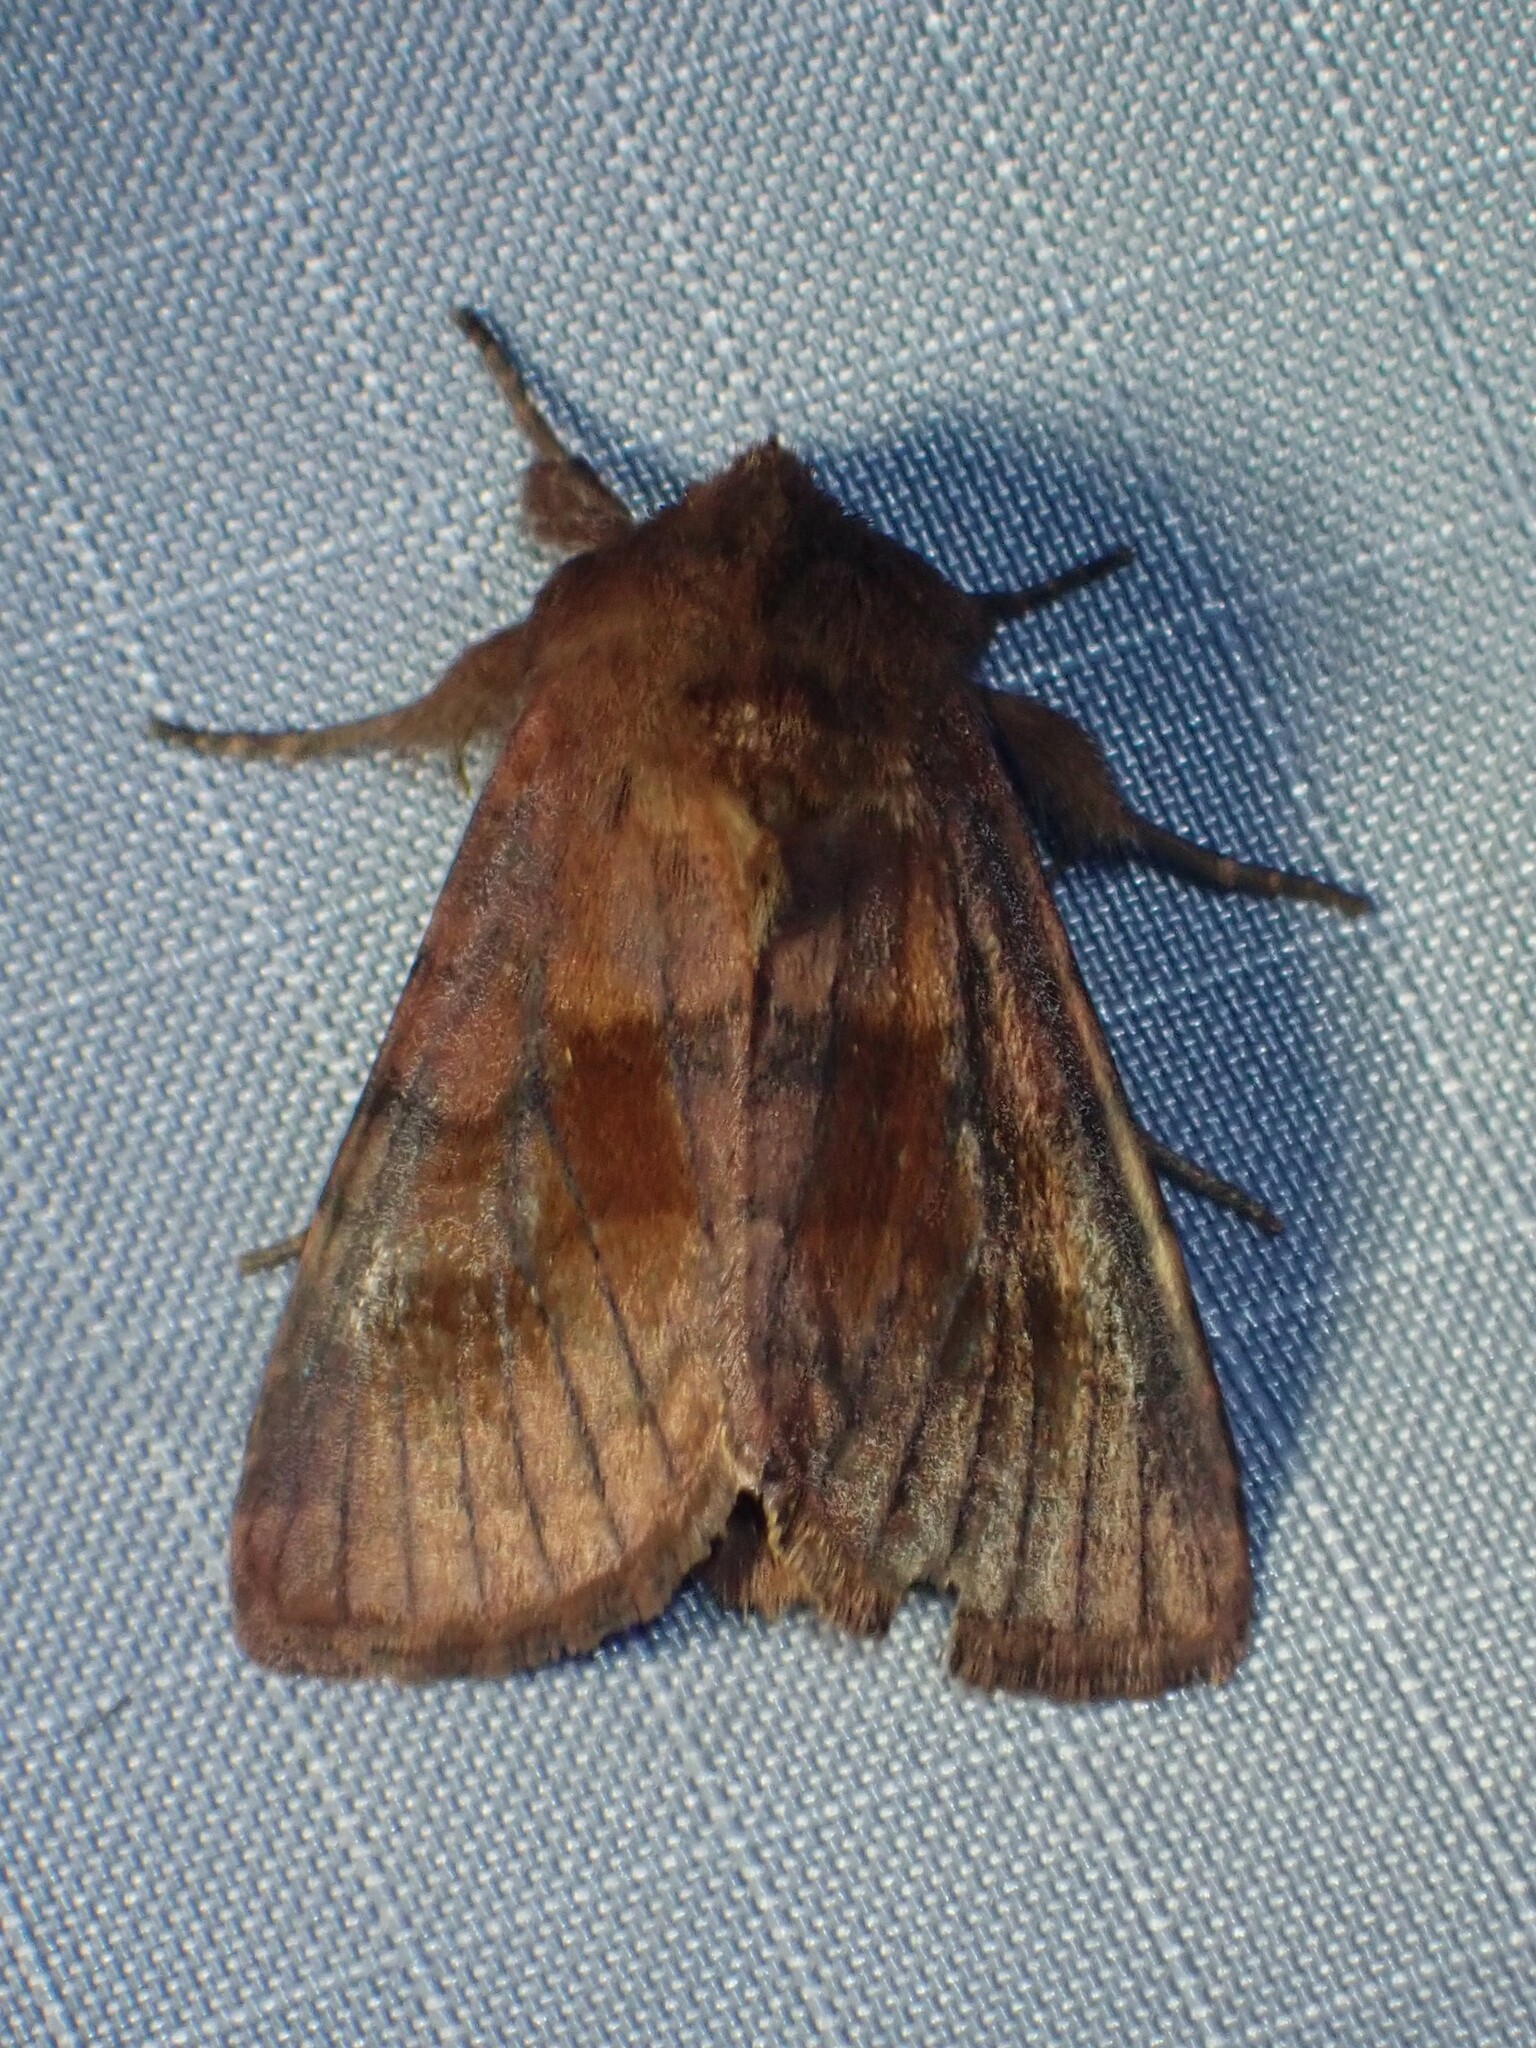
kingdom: Animalia
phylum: Arthropoda
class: Insecta
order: Lepidoptera
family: Noctuidae
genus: Nephelodes
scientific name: Nephelodes minians
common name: Bronzed cutworm
